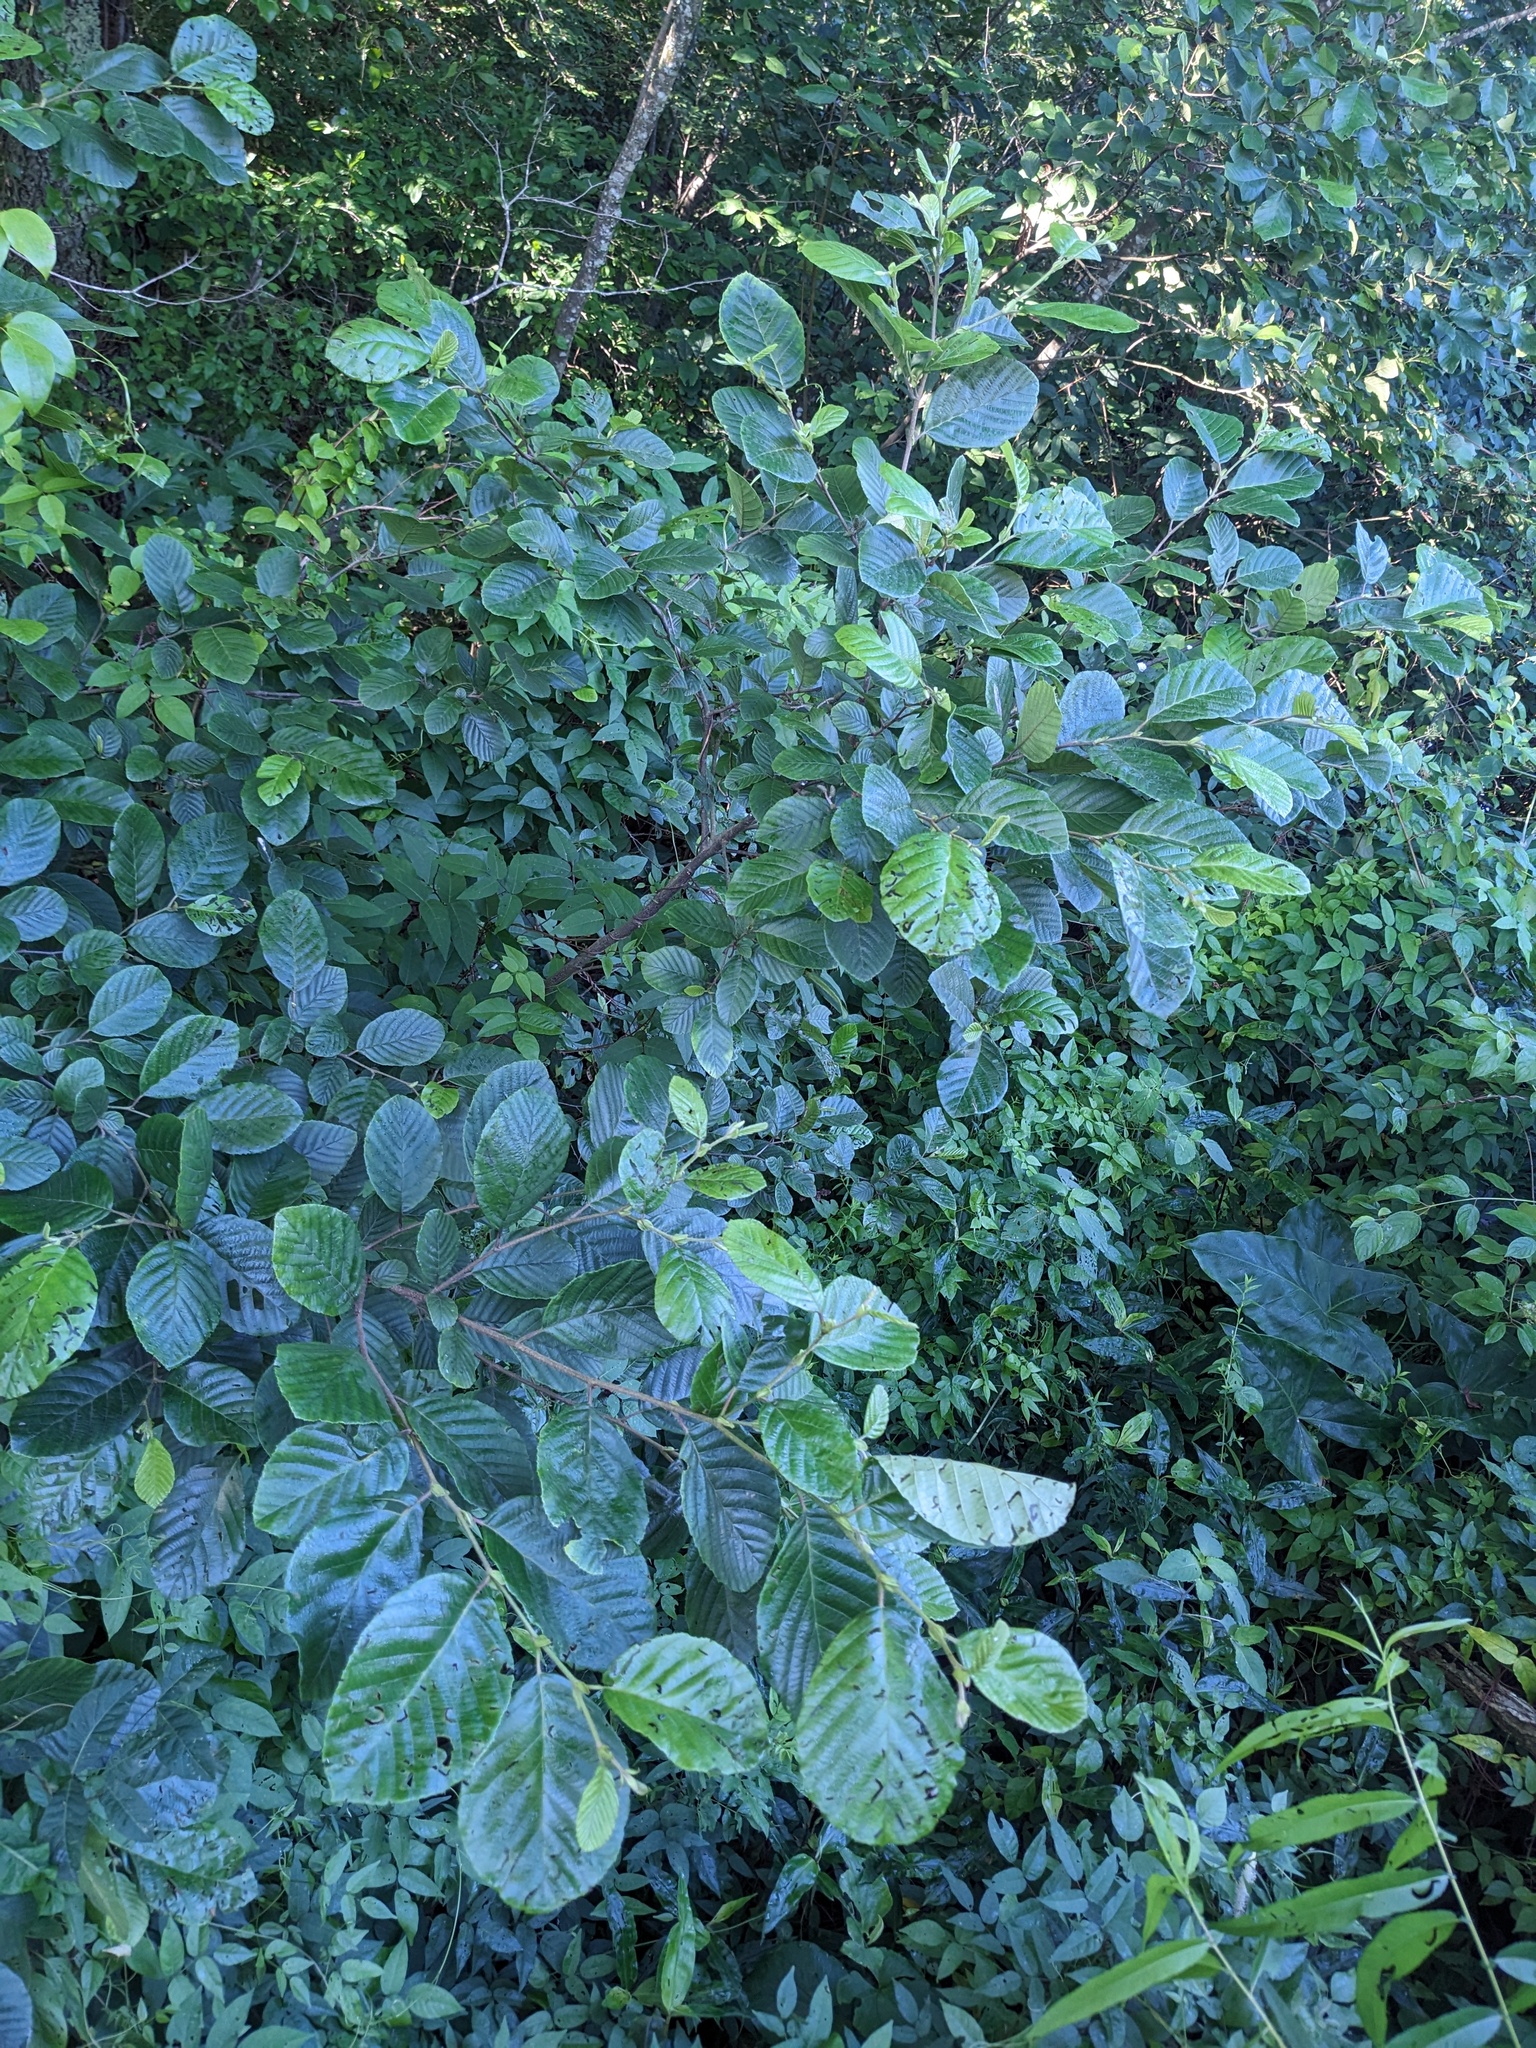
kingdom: Plantae
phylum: Tracheophyta
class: Magnoliopsida
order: Fagales
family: Betulaceae
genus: Alnus
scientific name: Alnus serrulata
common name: Hazel alder
